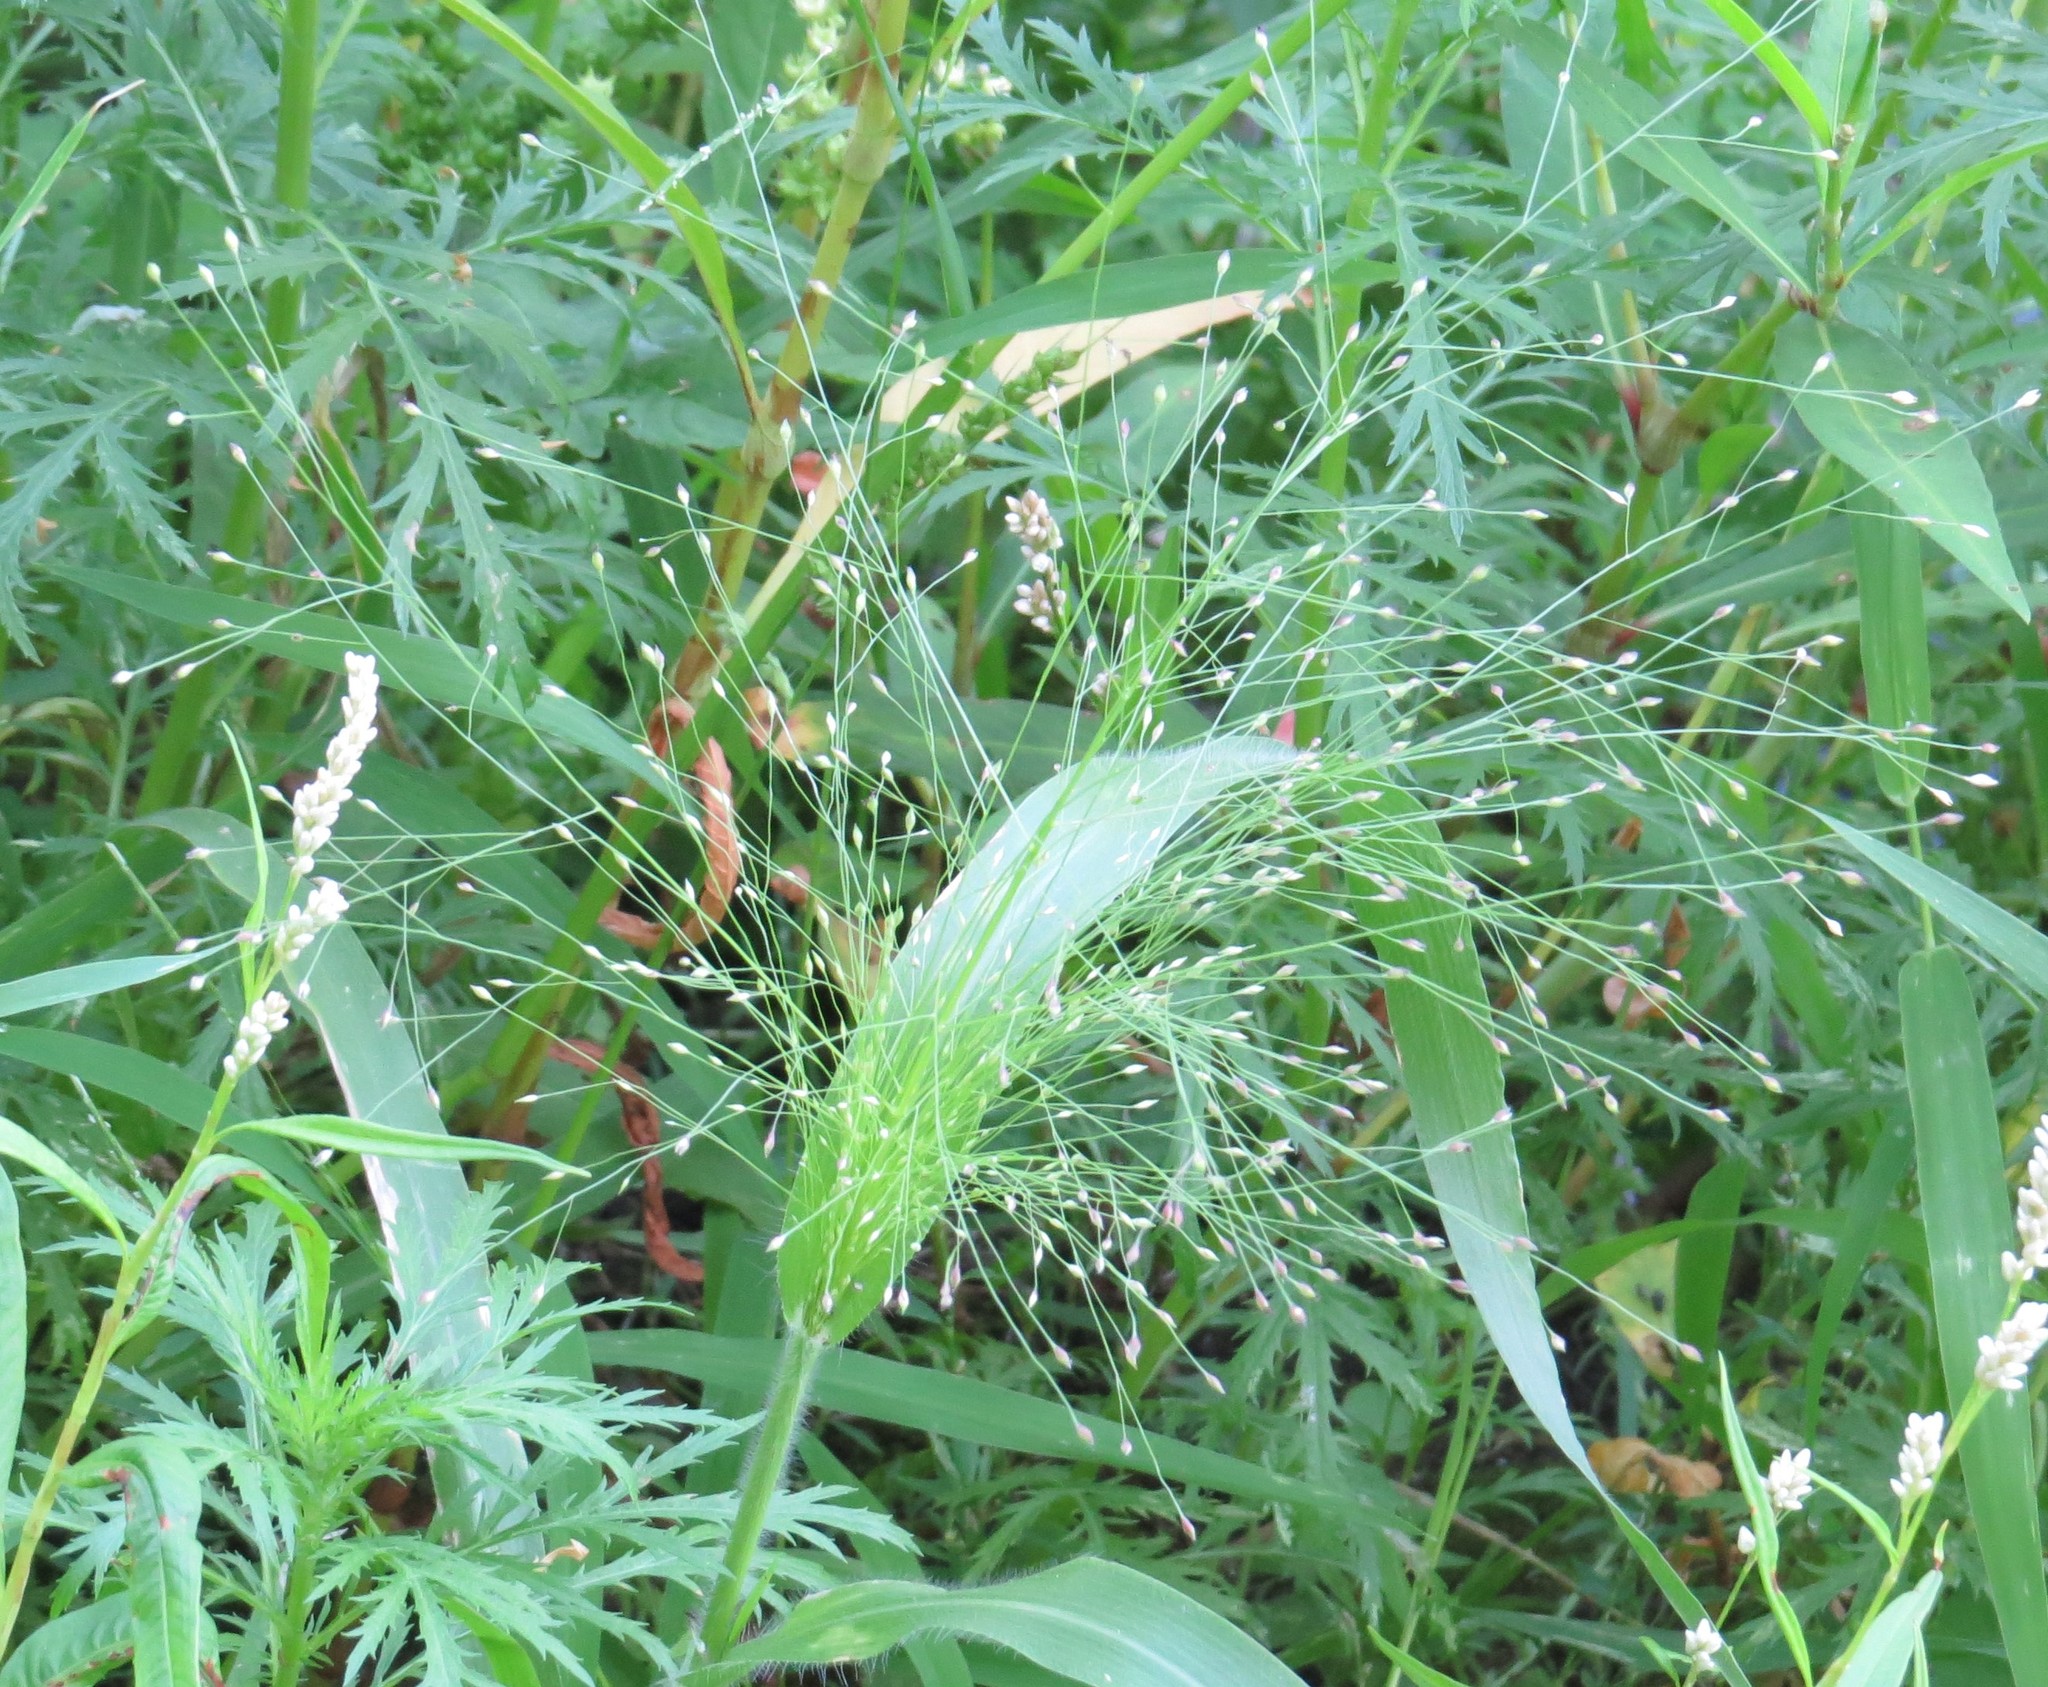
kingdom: Plantae
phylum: Tracheophyta
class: Liliopsida
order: Poales
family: Poaceae
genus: Panicum
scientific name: Panicum capillare
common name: Witch-grass
